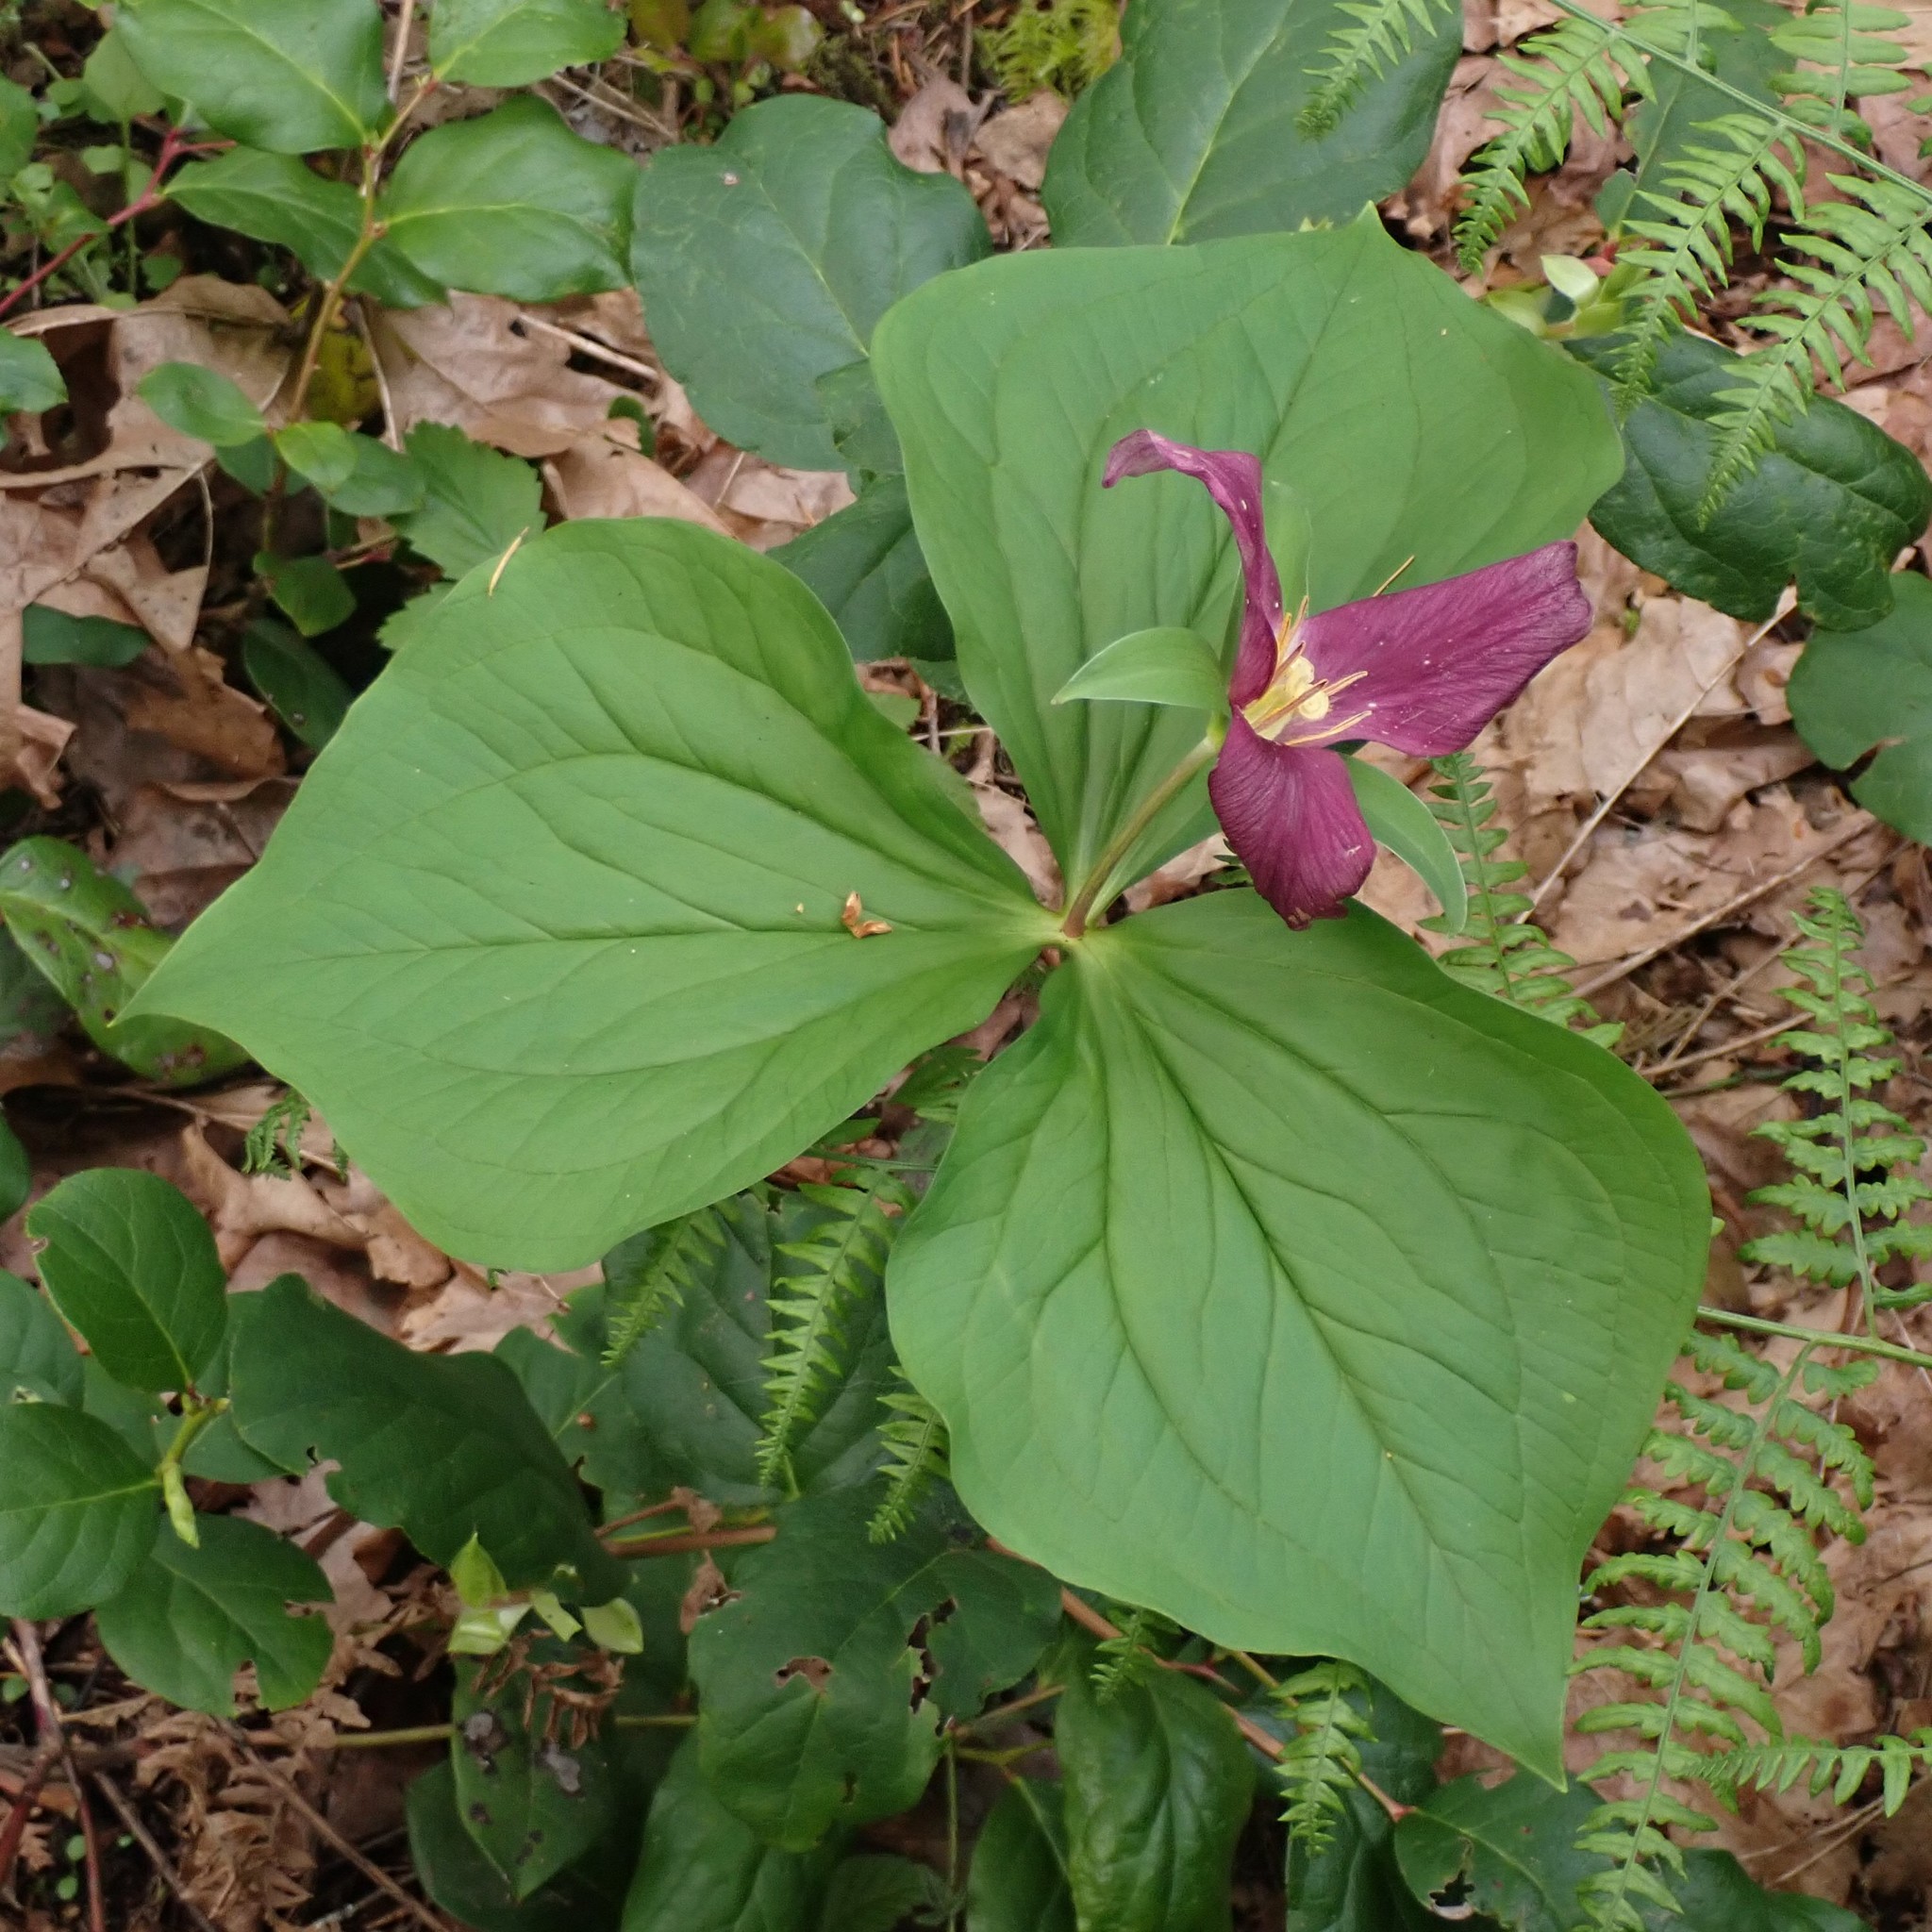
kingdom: Plantae
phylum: Tracheophyta
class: Liliopsida
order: Liliales
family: Melanthiaceae
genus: Trillium
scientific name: Trillium ovatum
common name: Pacific trillium
